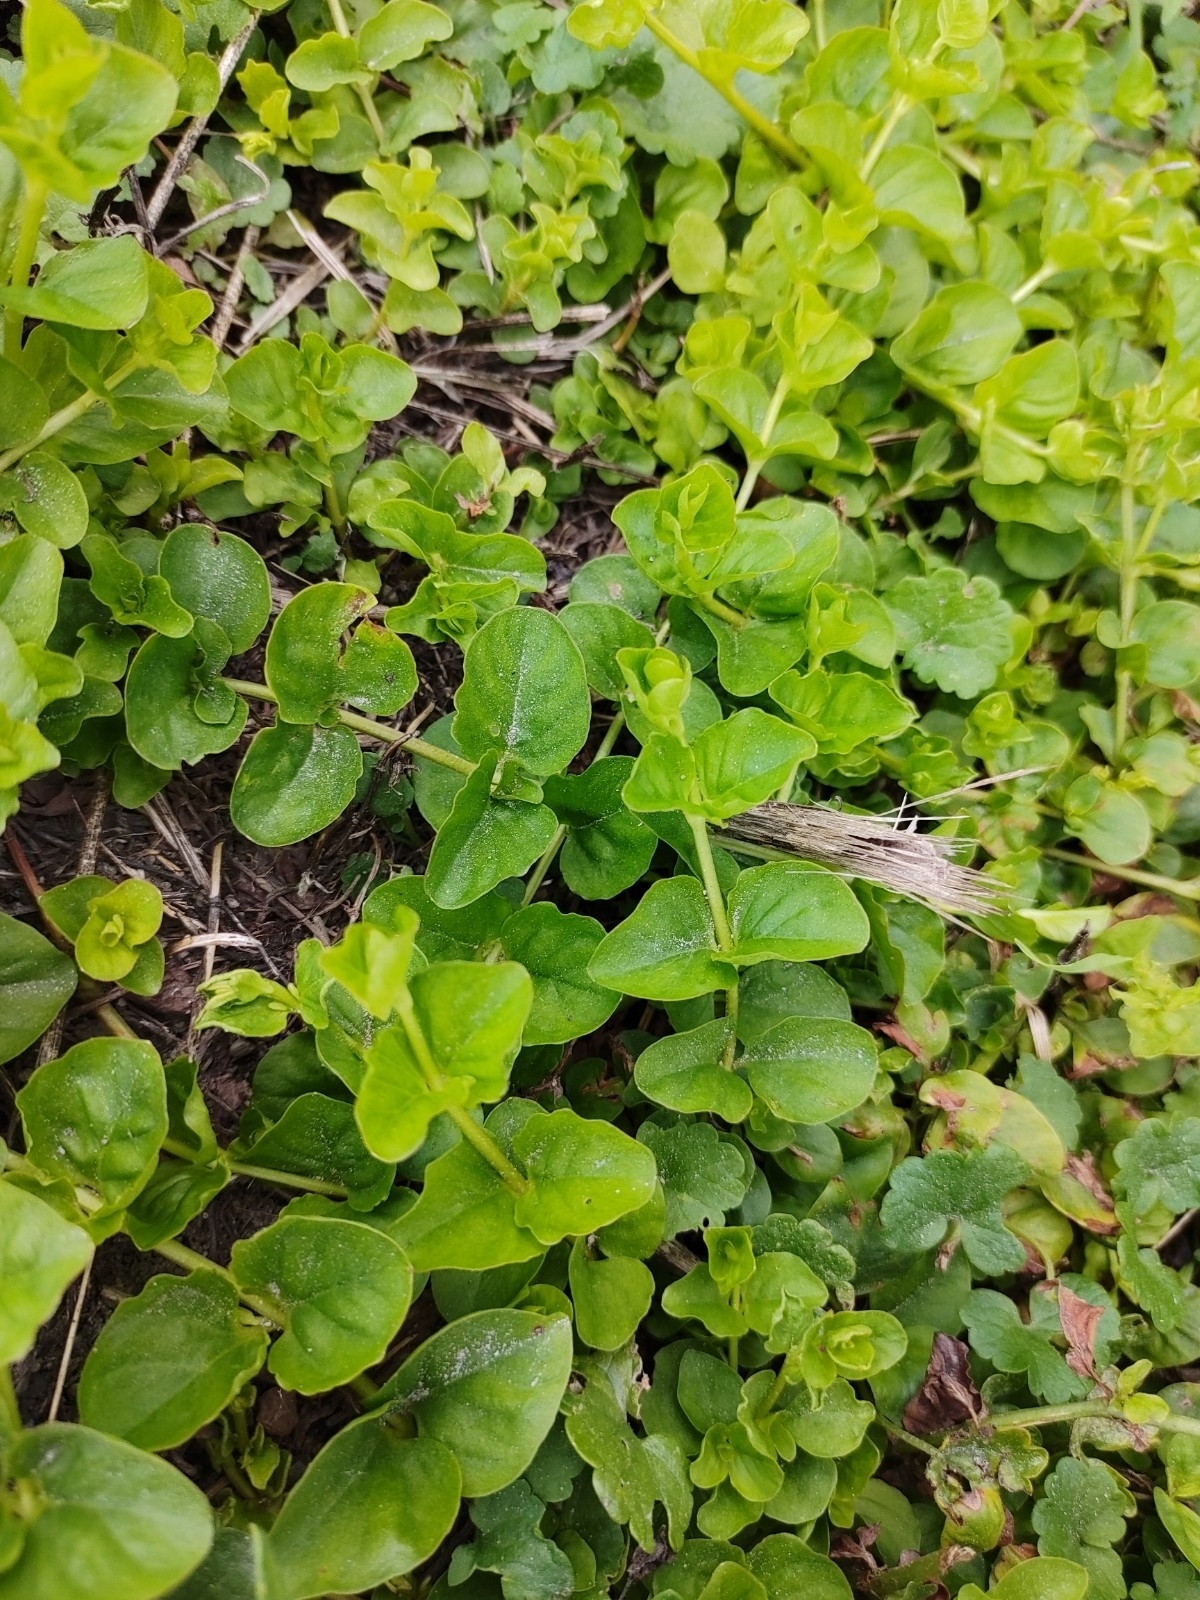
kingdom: Plantae
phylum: Tracheophyta
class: Magnoliopsida
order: Ericales
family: Primulaceae
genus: Lysimachia
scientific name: Lysimachia nummularia
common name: Moneywort
